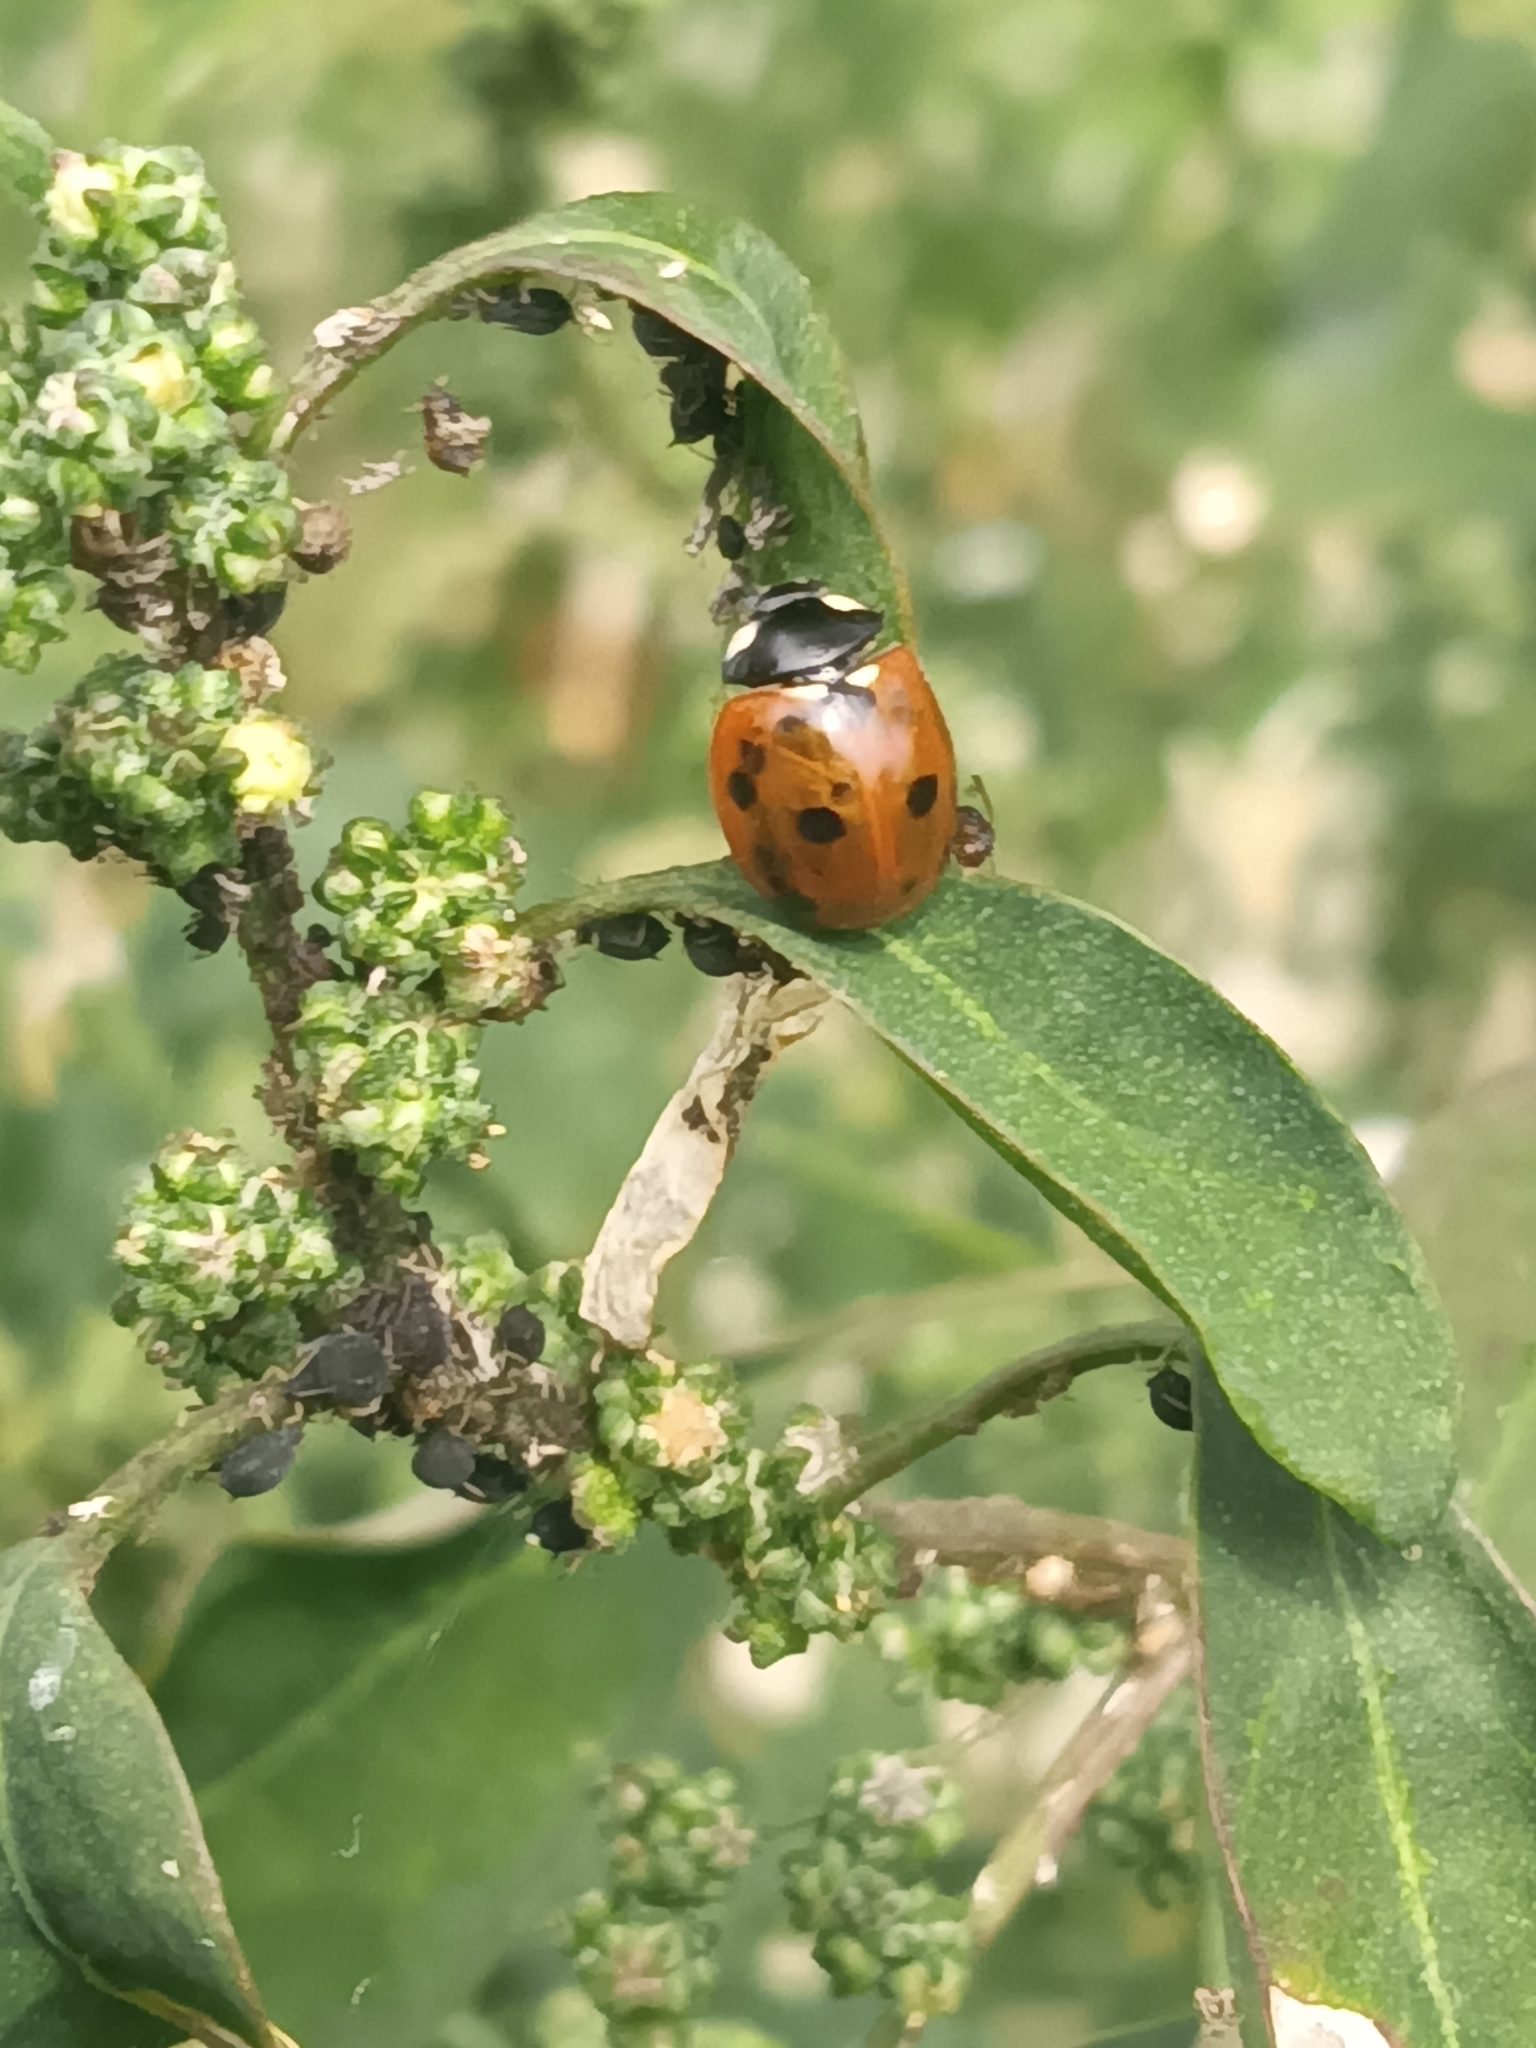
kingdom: Animalia
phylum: Arthropoda
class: Insecta
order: Coleoptera
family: Coccinellidae
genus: Coccinella
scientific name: Coccinella septempunctata
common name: Sevenspotted lady beetle
